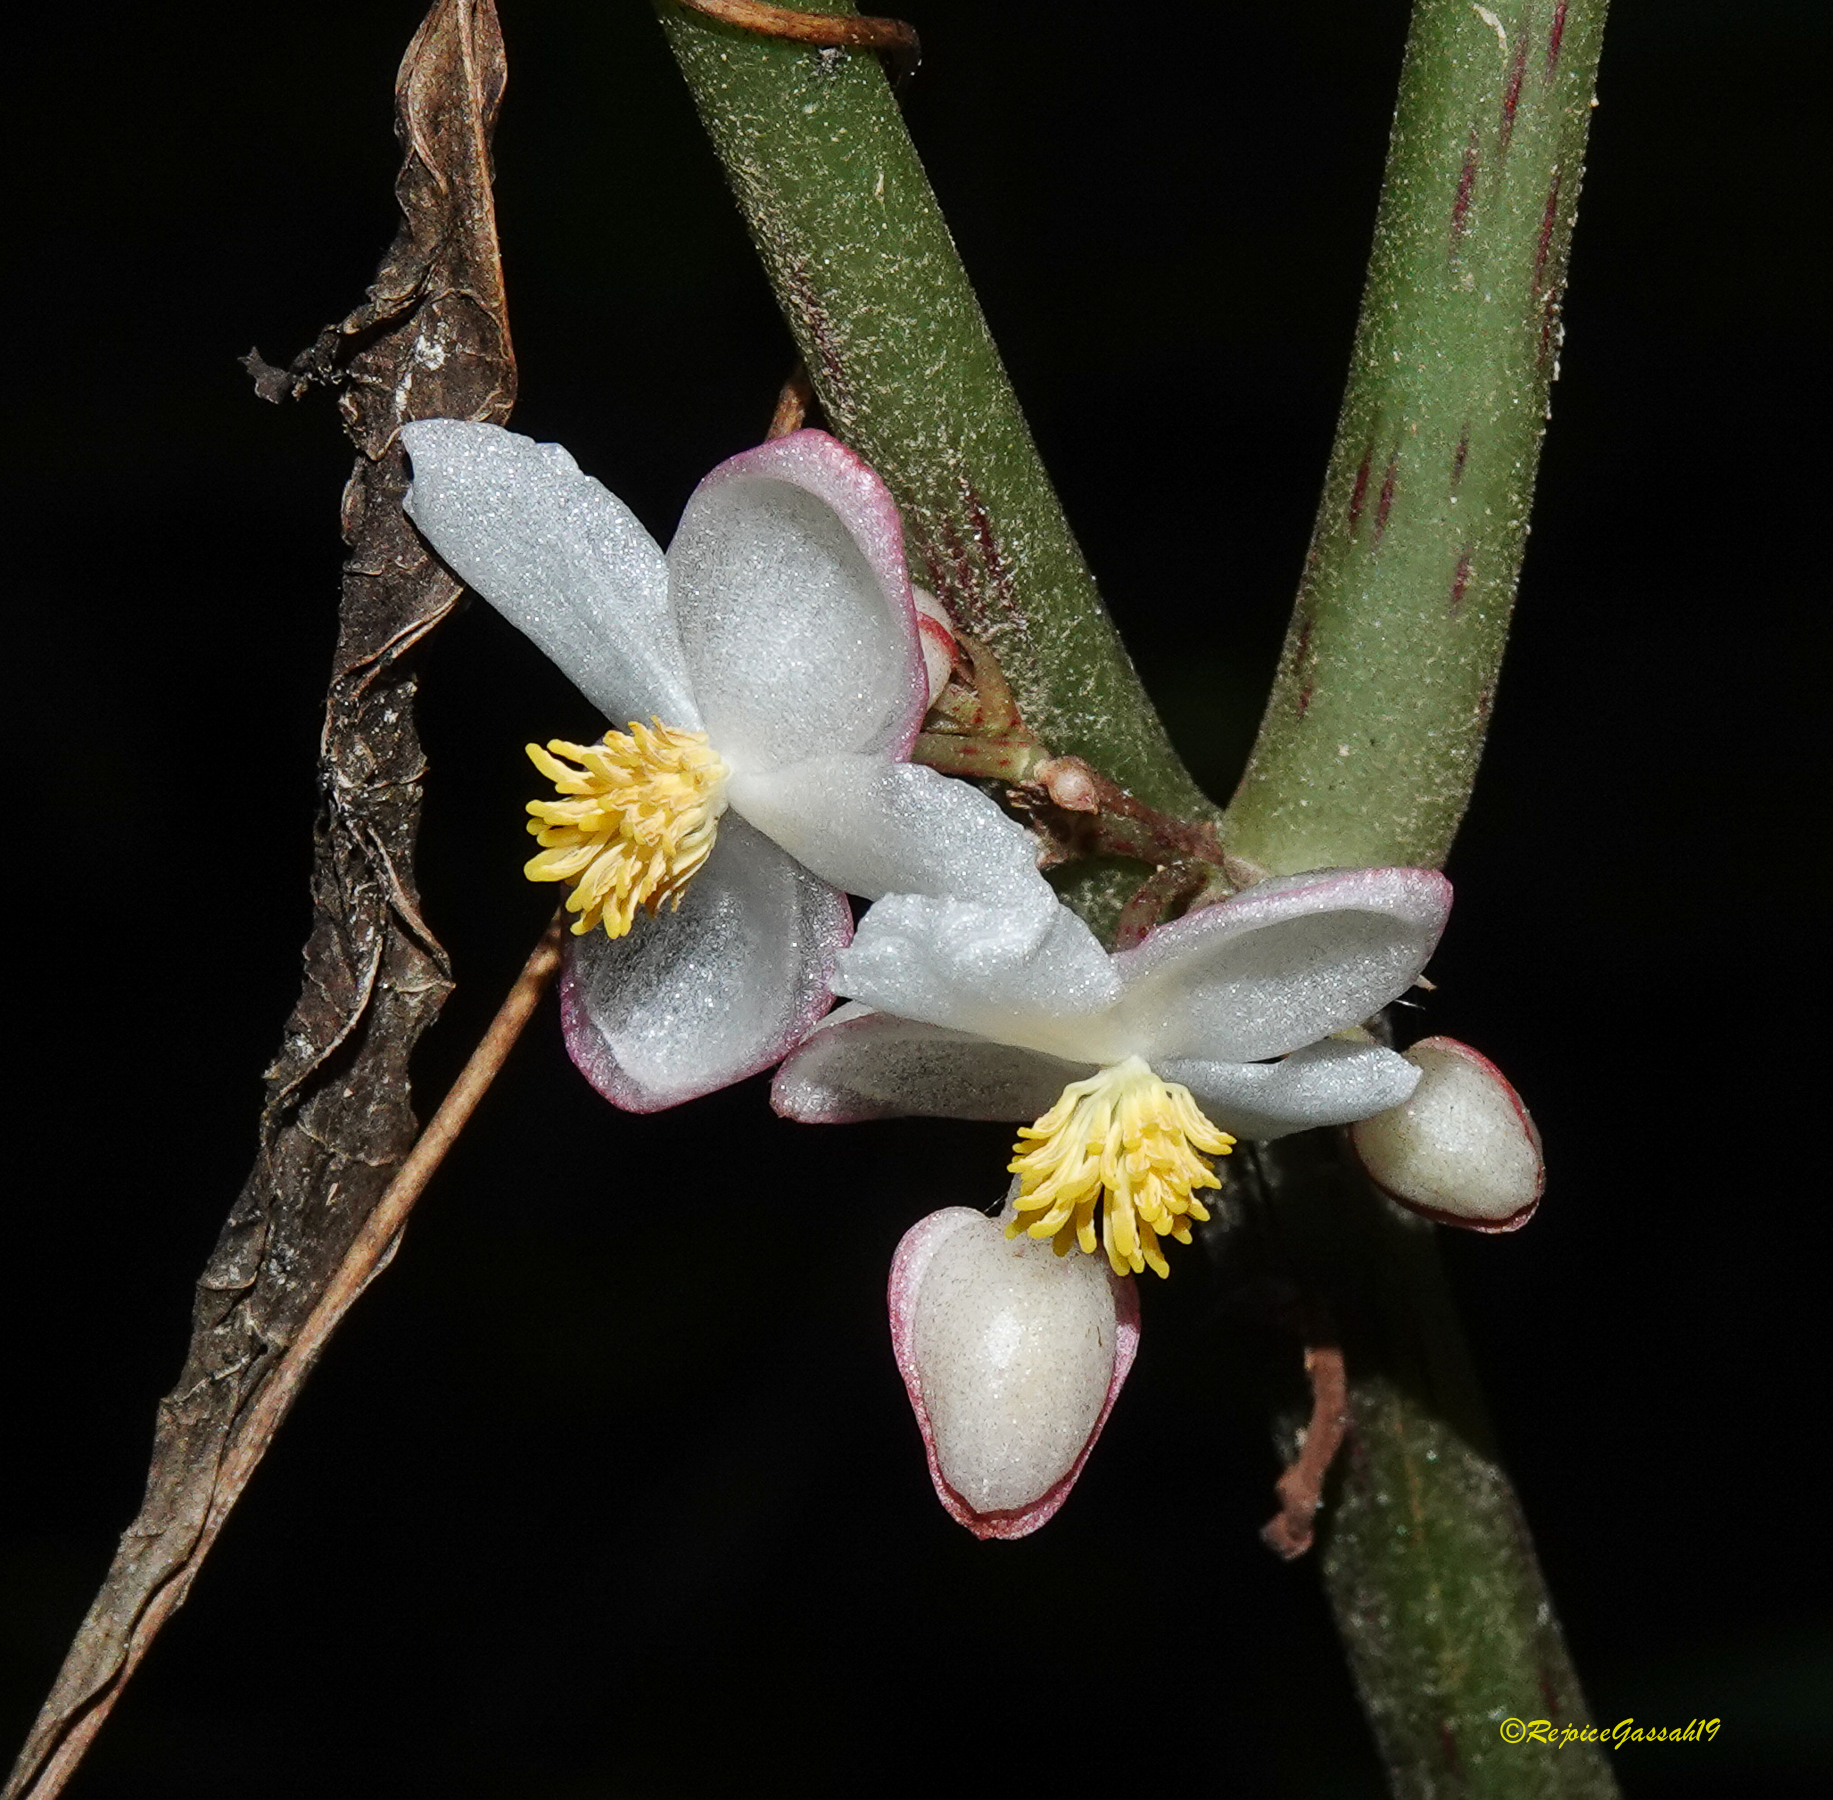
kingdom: Plantae
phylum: Tracheophyta
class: Magnoliopsida
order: Cucurbitales
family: Begoniaceae
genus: Begonia
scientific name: Begonia roxburghii
